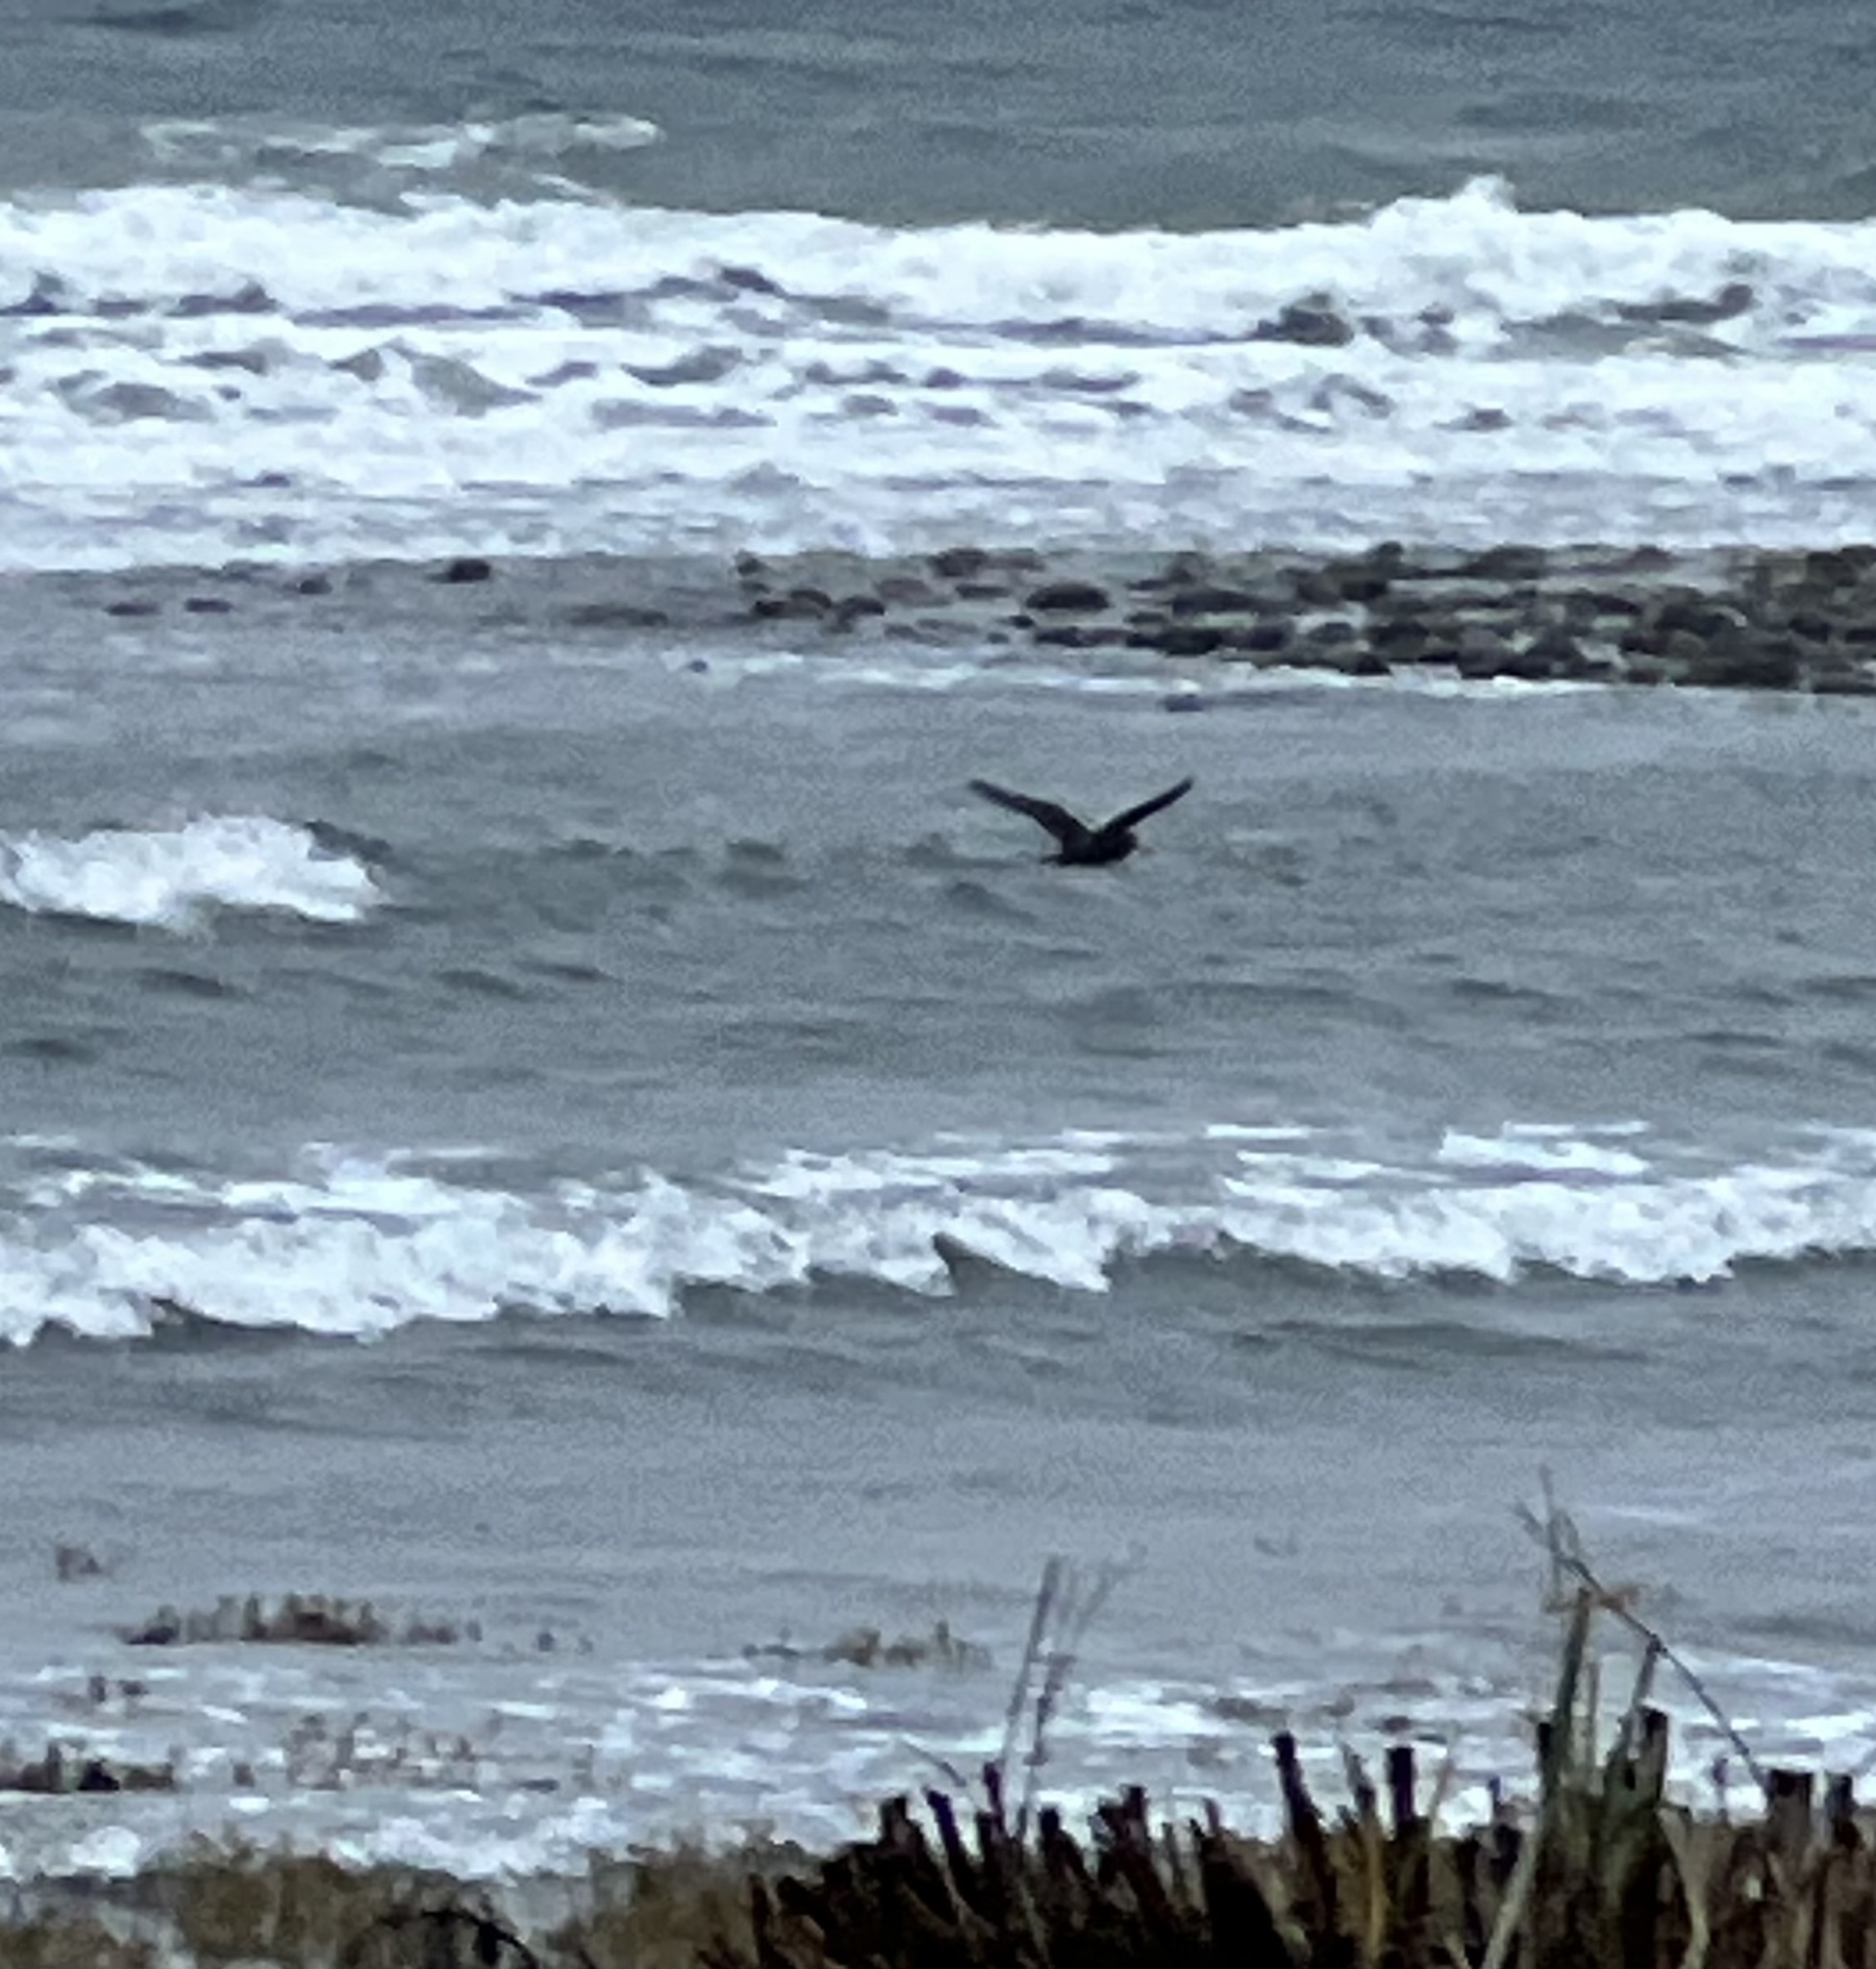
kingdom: Animalia
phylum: Chordata
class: Aves
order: Charadriiformes
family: Haematopodidae
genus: Haematopus
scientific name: Haematopus bachmani
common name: Black oystercatcher
